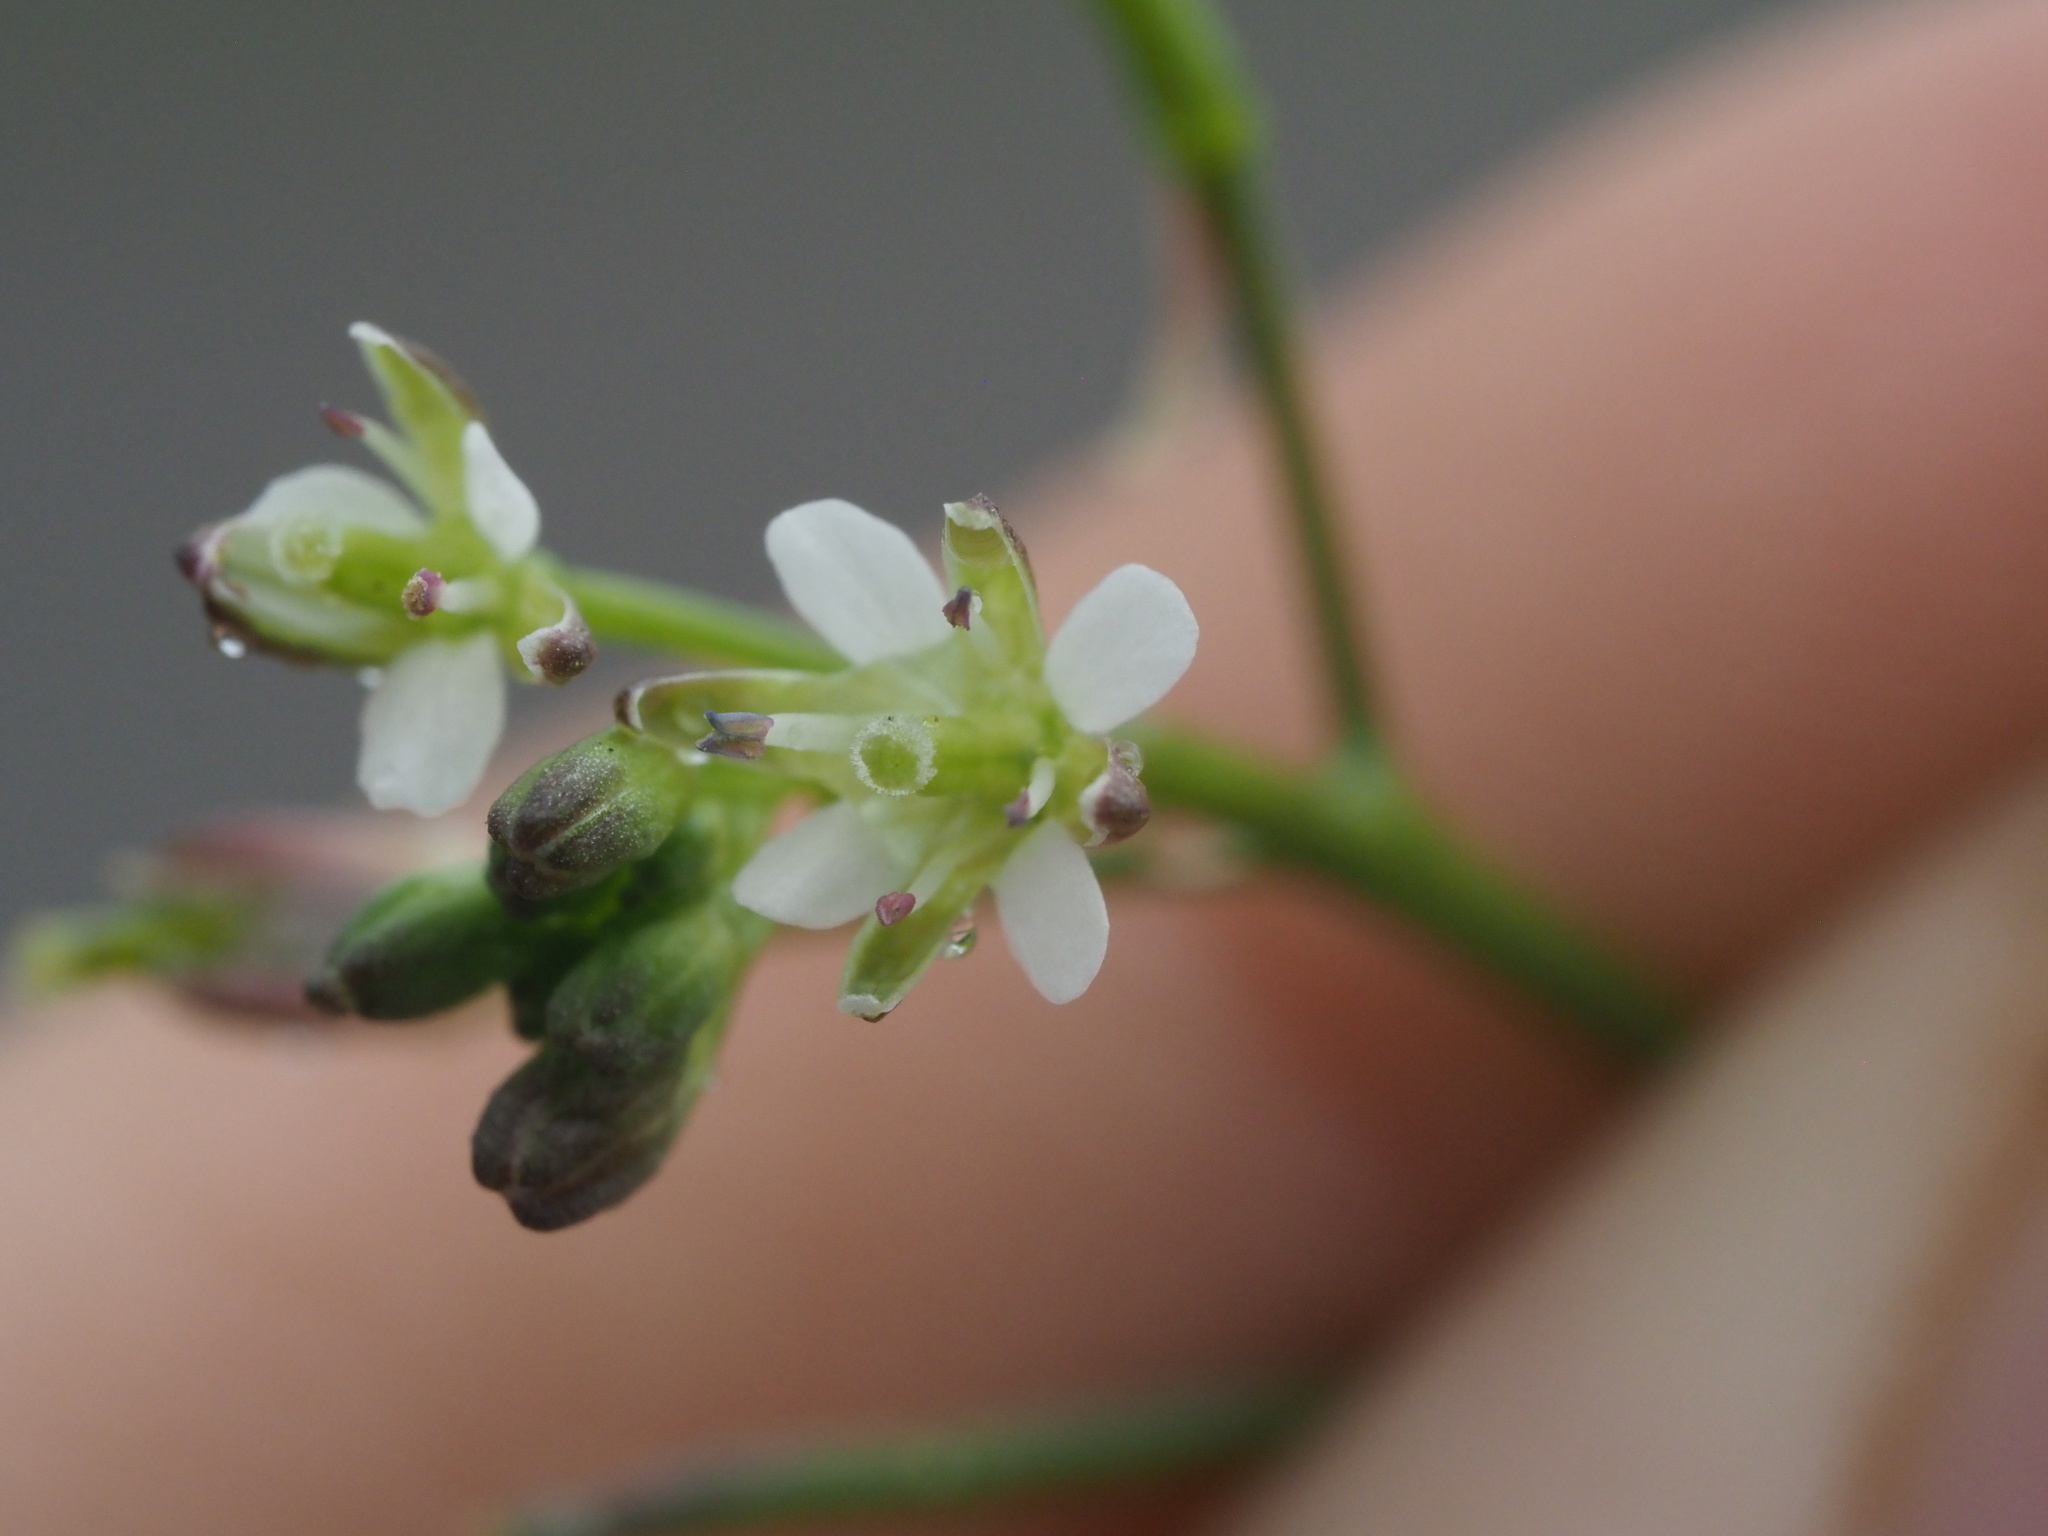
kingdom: Plantae
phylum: Tracheophyta
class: Magnoliopsida
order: Brassicales
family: Brassicaceae
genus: Rorippa
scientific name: Rorippa sarmentosa
